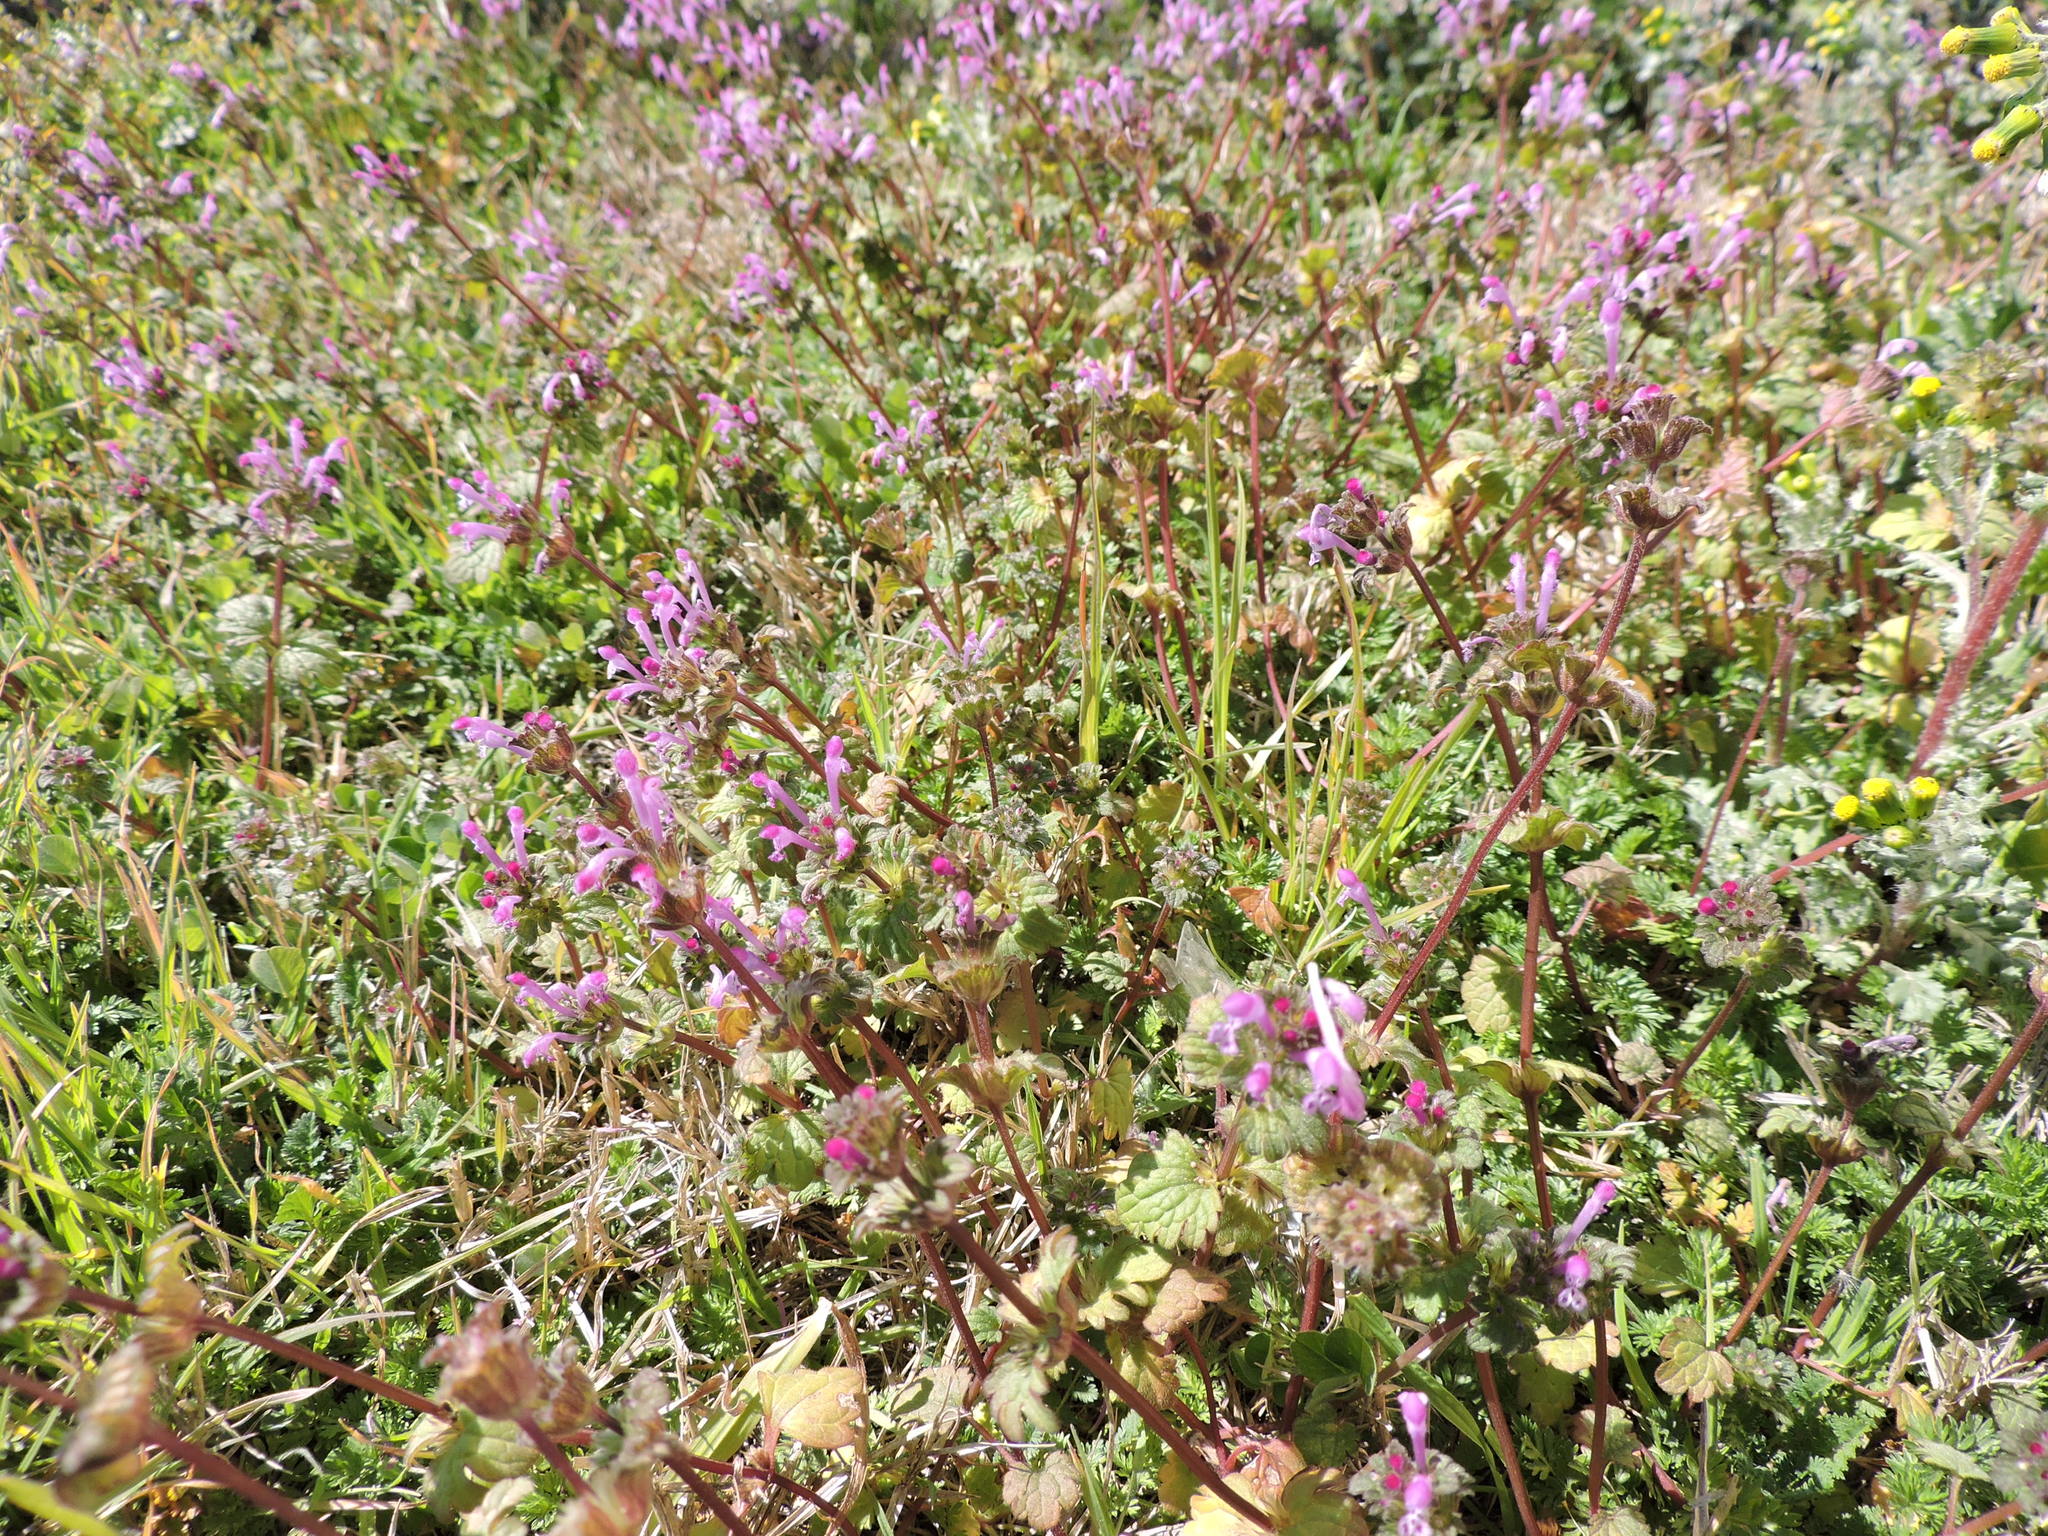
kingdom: Plantae
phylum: Tracheophyta
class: Magnoliopsida
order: Lamiales
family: Lamiaceae
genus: Lamium
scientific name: Lamium amplexicaule
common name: Henbit dead-nettle
